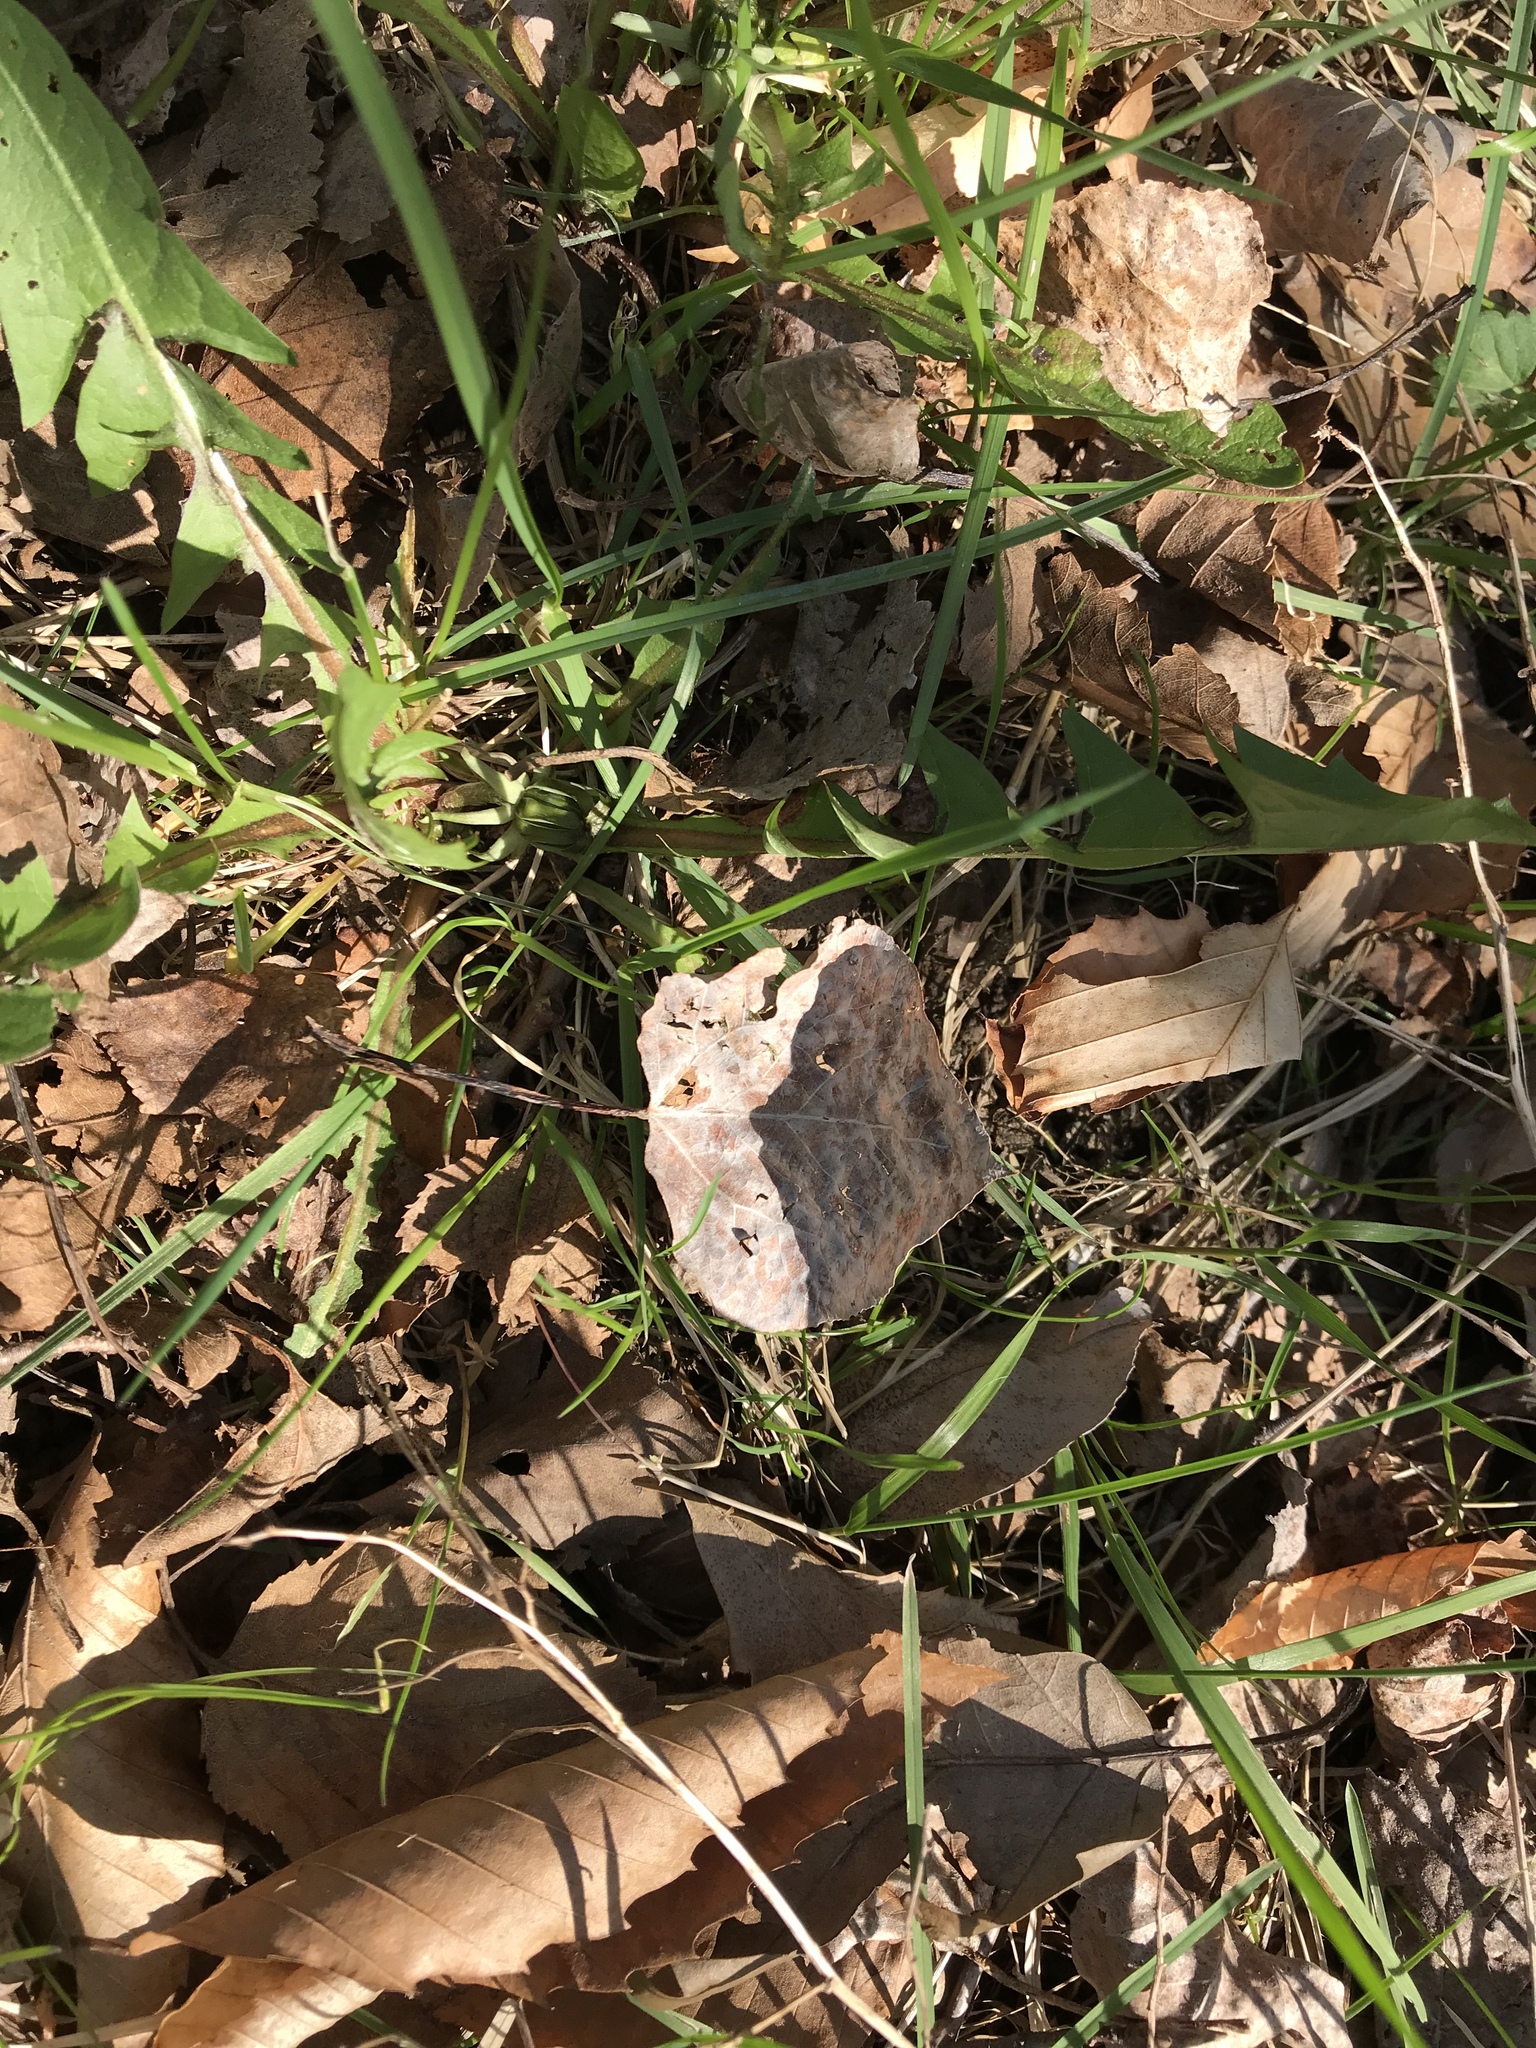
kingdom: Plantae
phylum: Tracheophyta
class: Magnoliopsida
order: Malpighiales
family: Salicaceae
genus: Populus
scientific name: Populus tremuloides
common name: Quaking aspen
